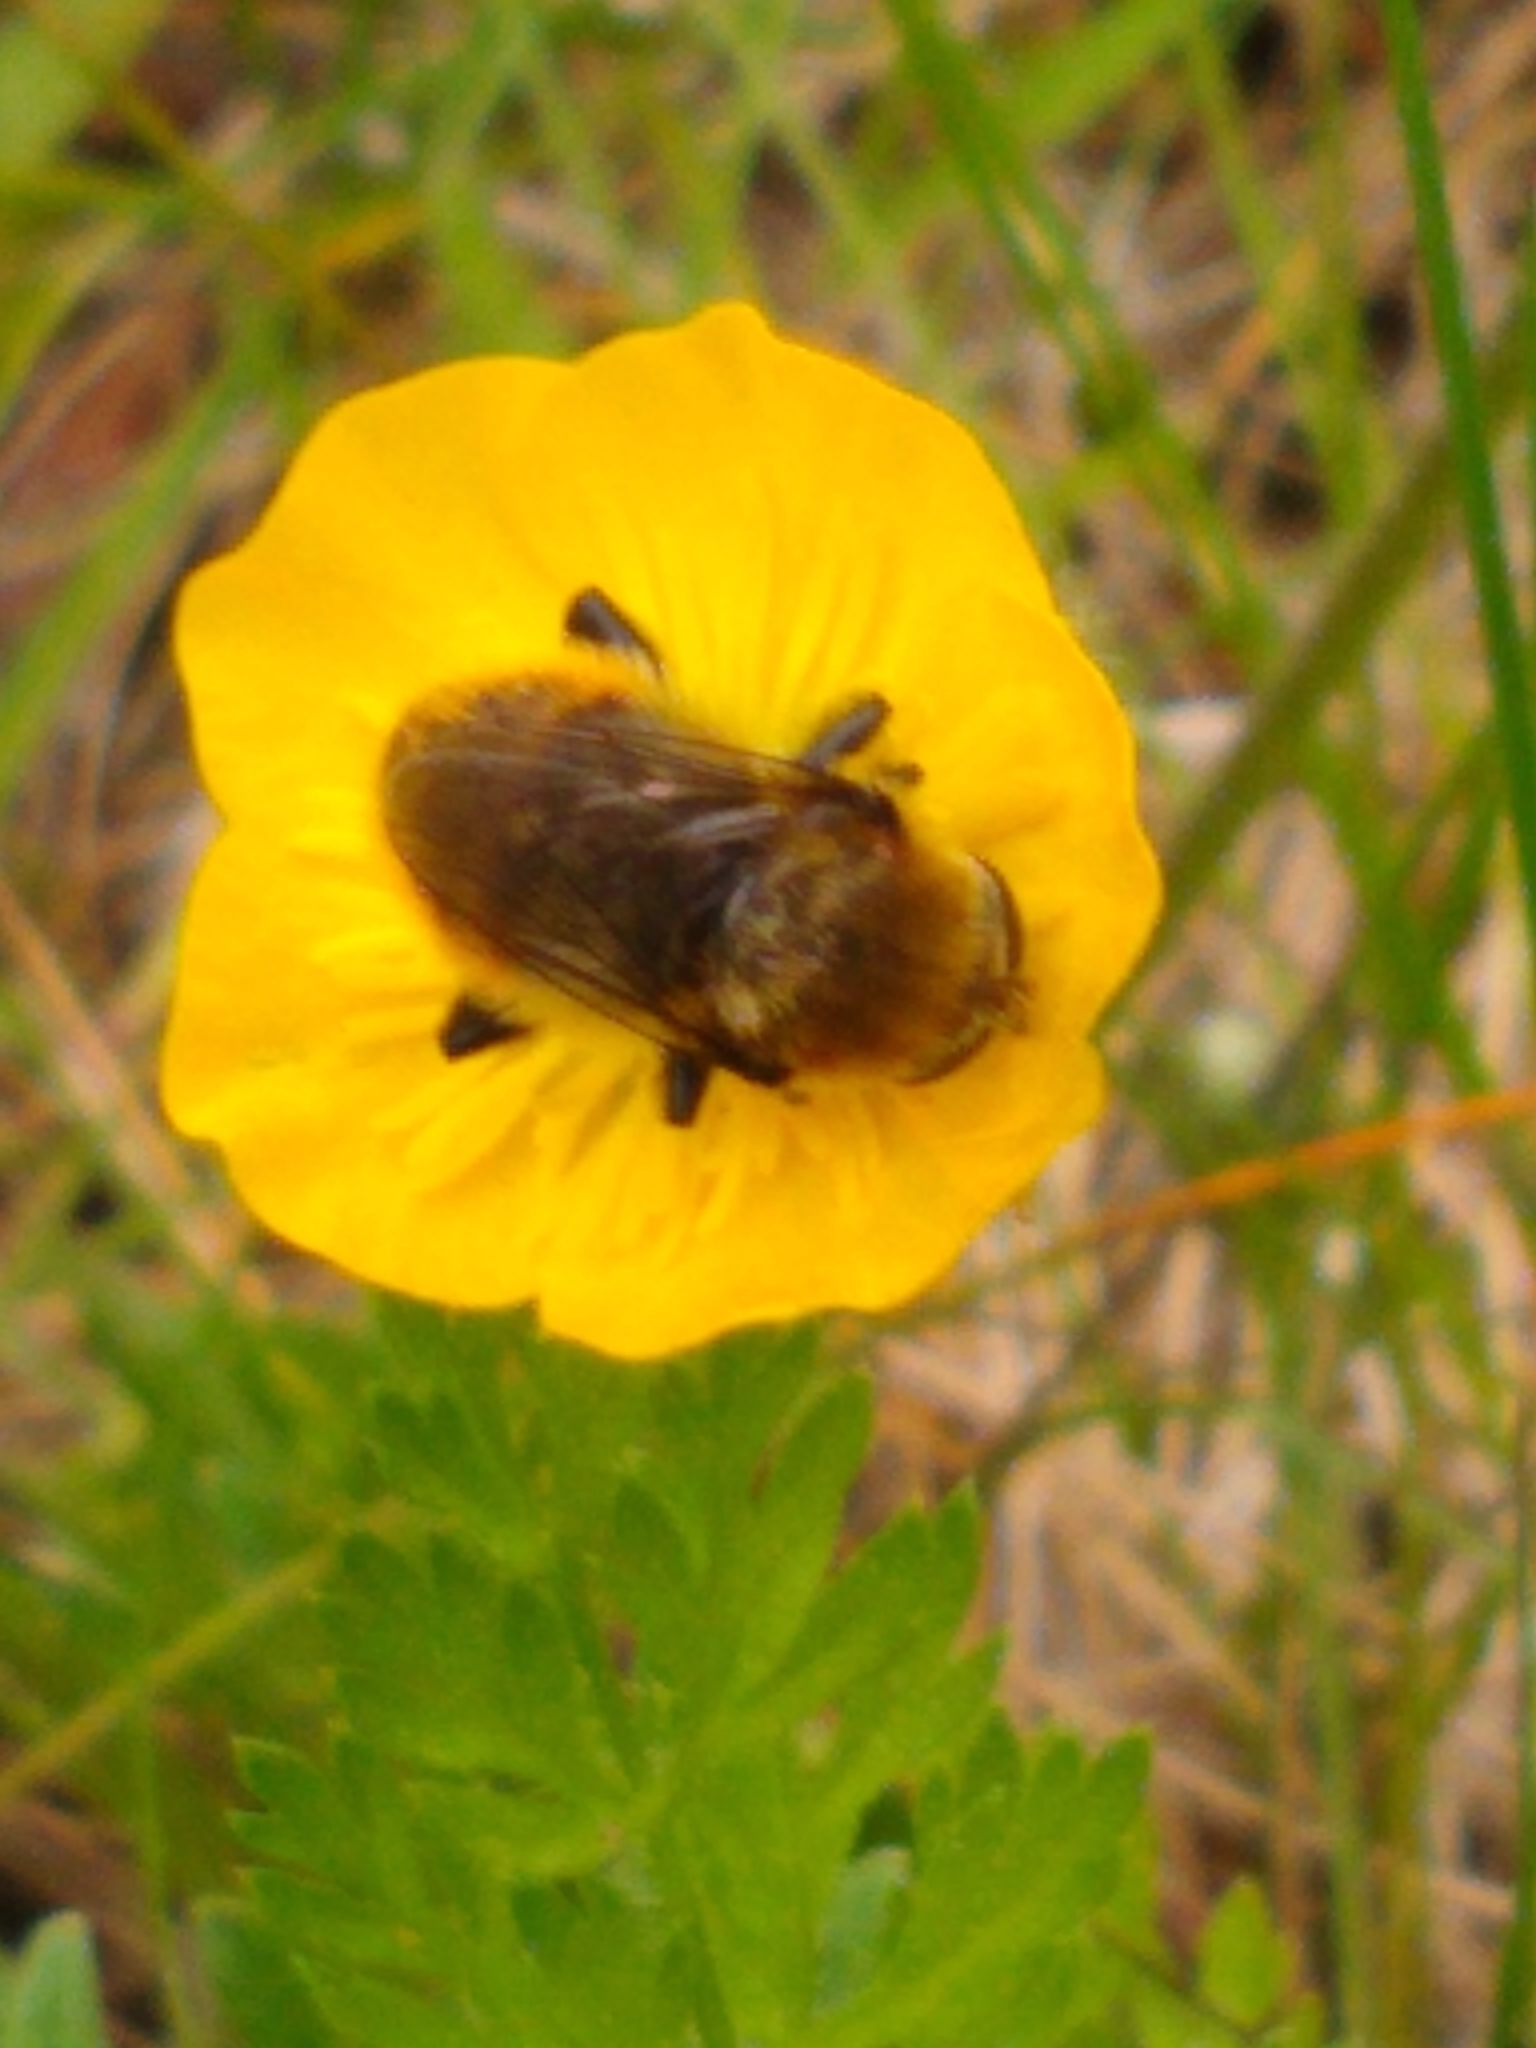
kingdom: Animalia
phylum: Arthropoda
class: Insecta
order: Diptera
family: Syrphidae
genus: Merodon
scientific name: Merodon equestris
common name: Greater bulb-fly
